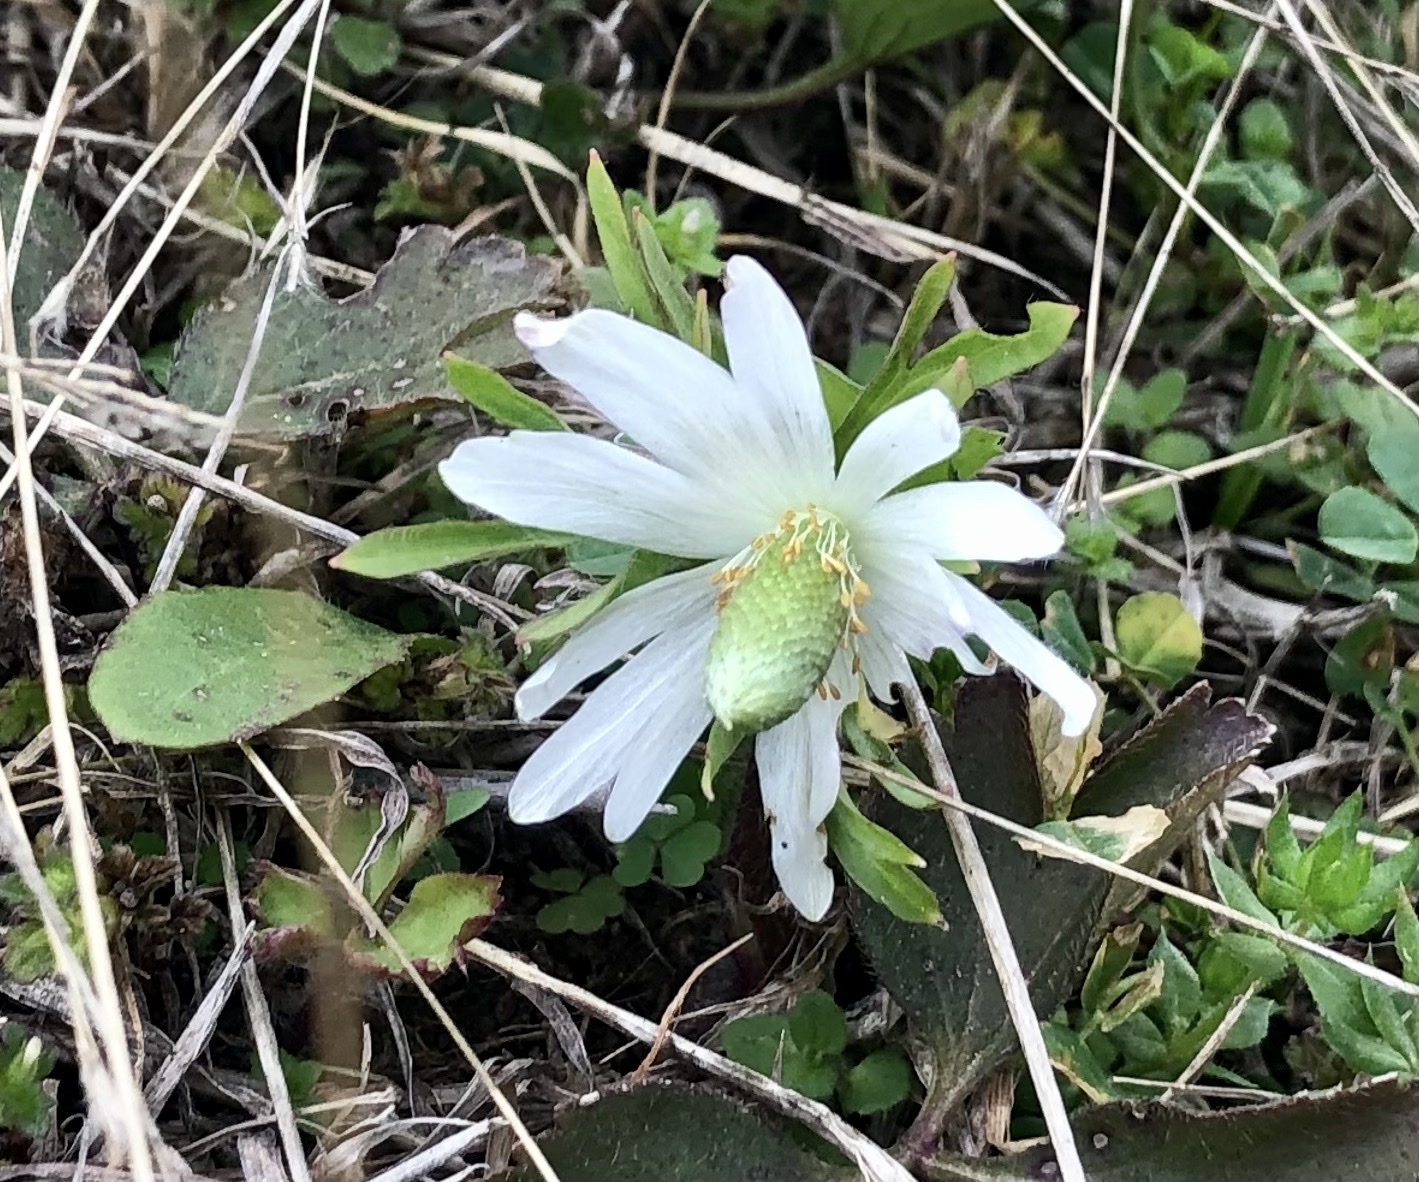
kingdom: Plantae
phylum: Tracheophyta
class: Magnoliopsida
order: Ranunculales
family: Ranunculaceae
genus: Anemone
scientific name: Anemone berlandieri
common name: Ten-petal anemone
